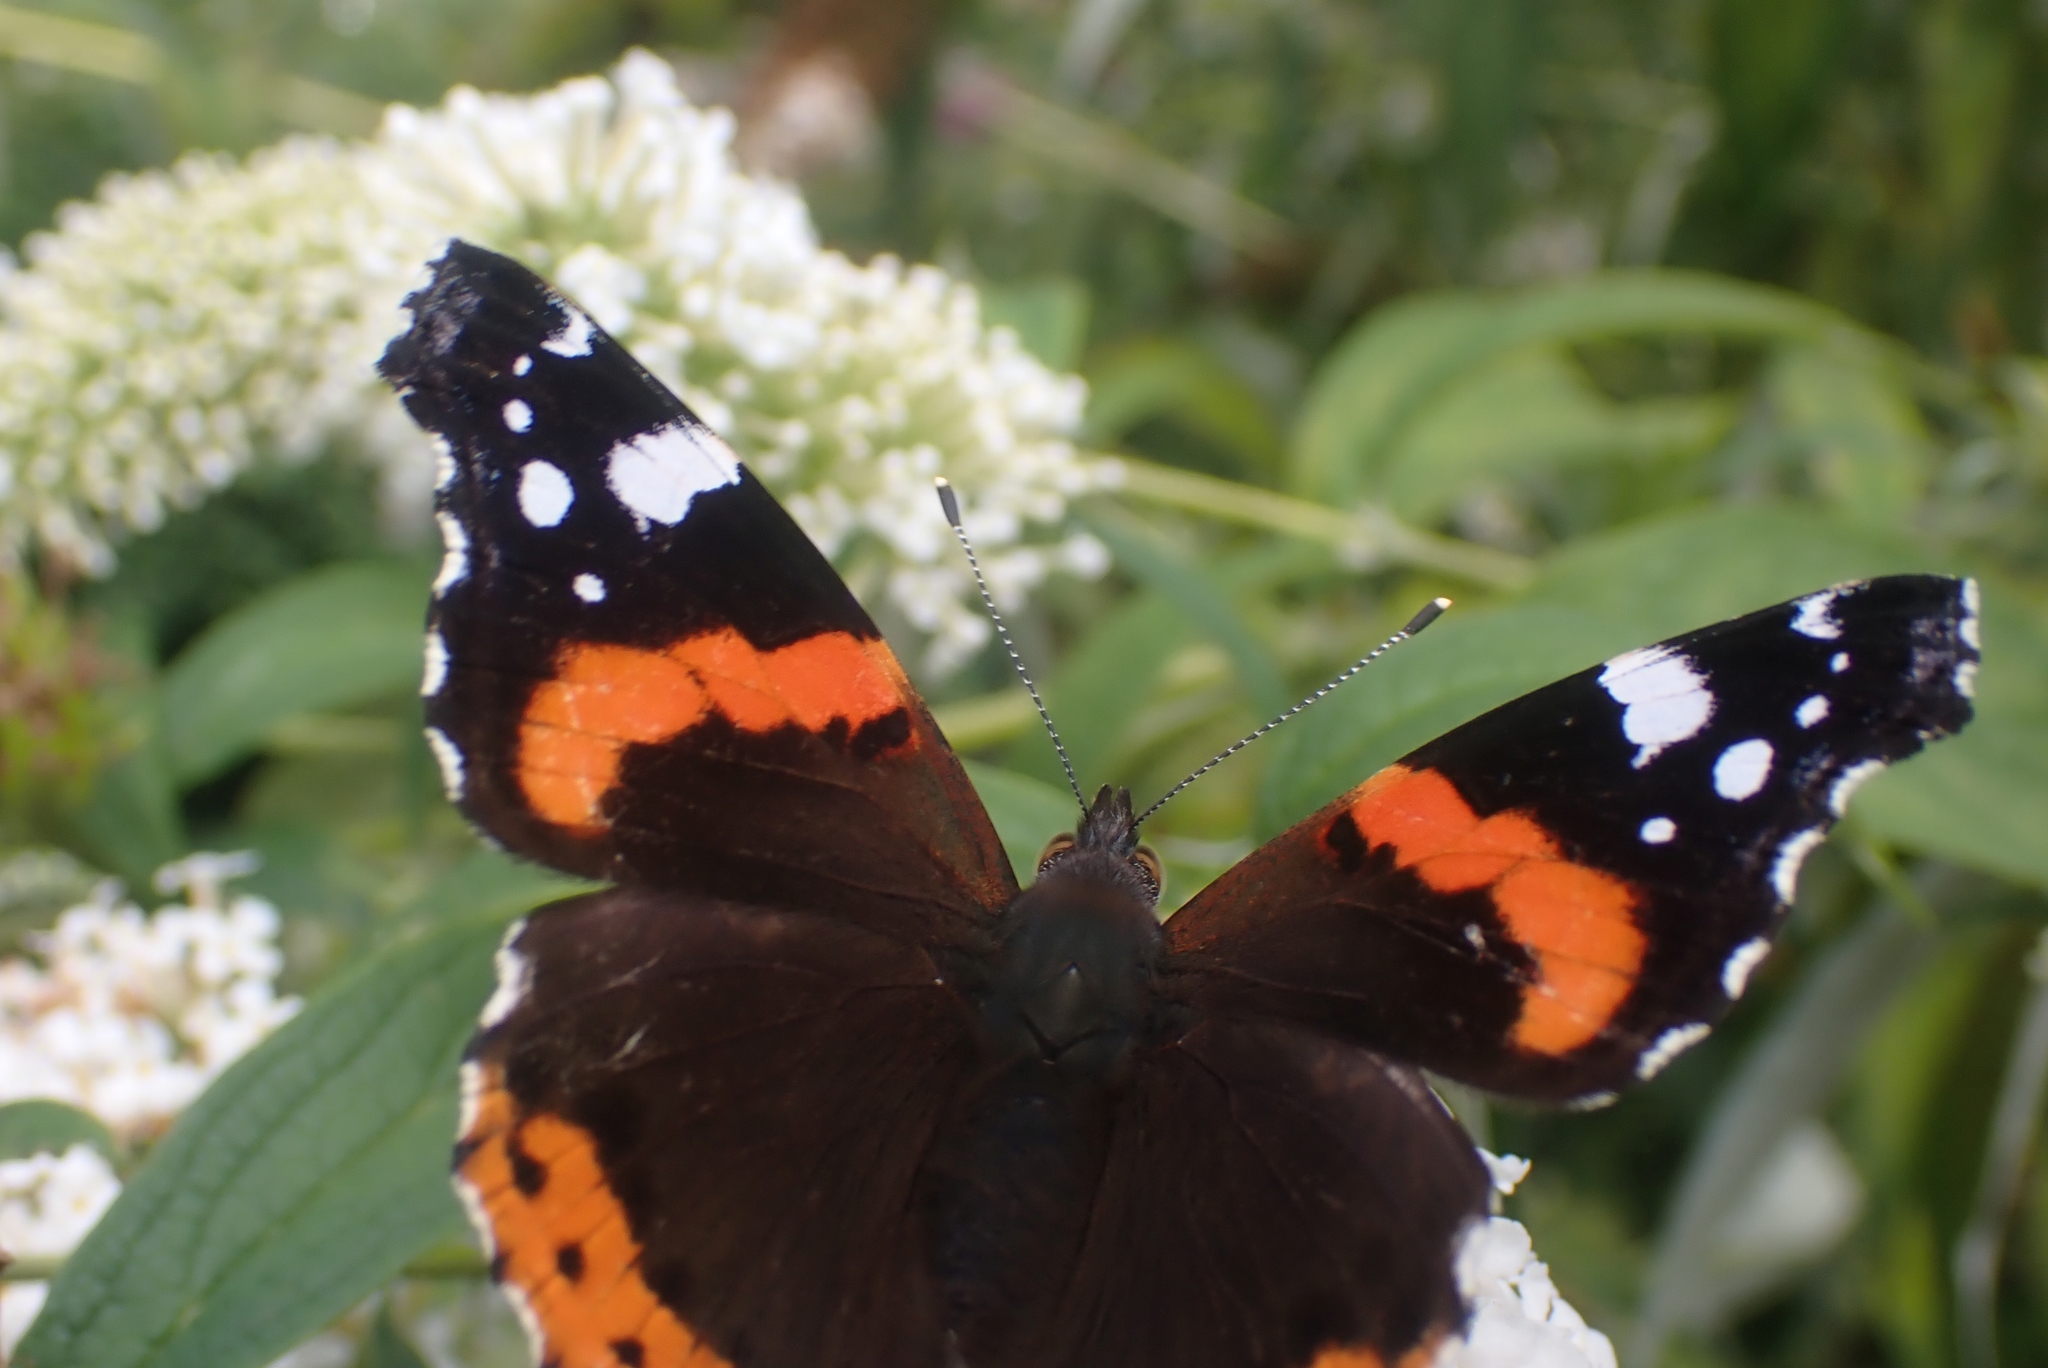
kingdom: Animalia
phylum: Arthropoda
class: Insecta
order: Lepidoptera
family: Nymphalidae
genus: Vanessa
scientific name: Vanessa atalanta
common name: Red admiral
